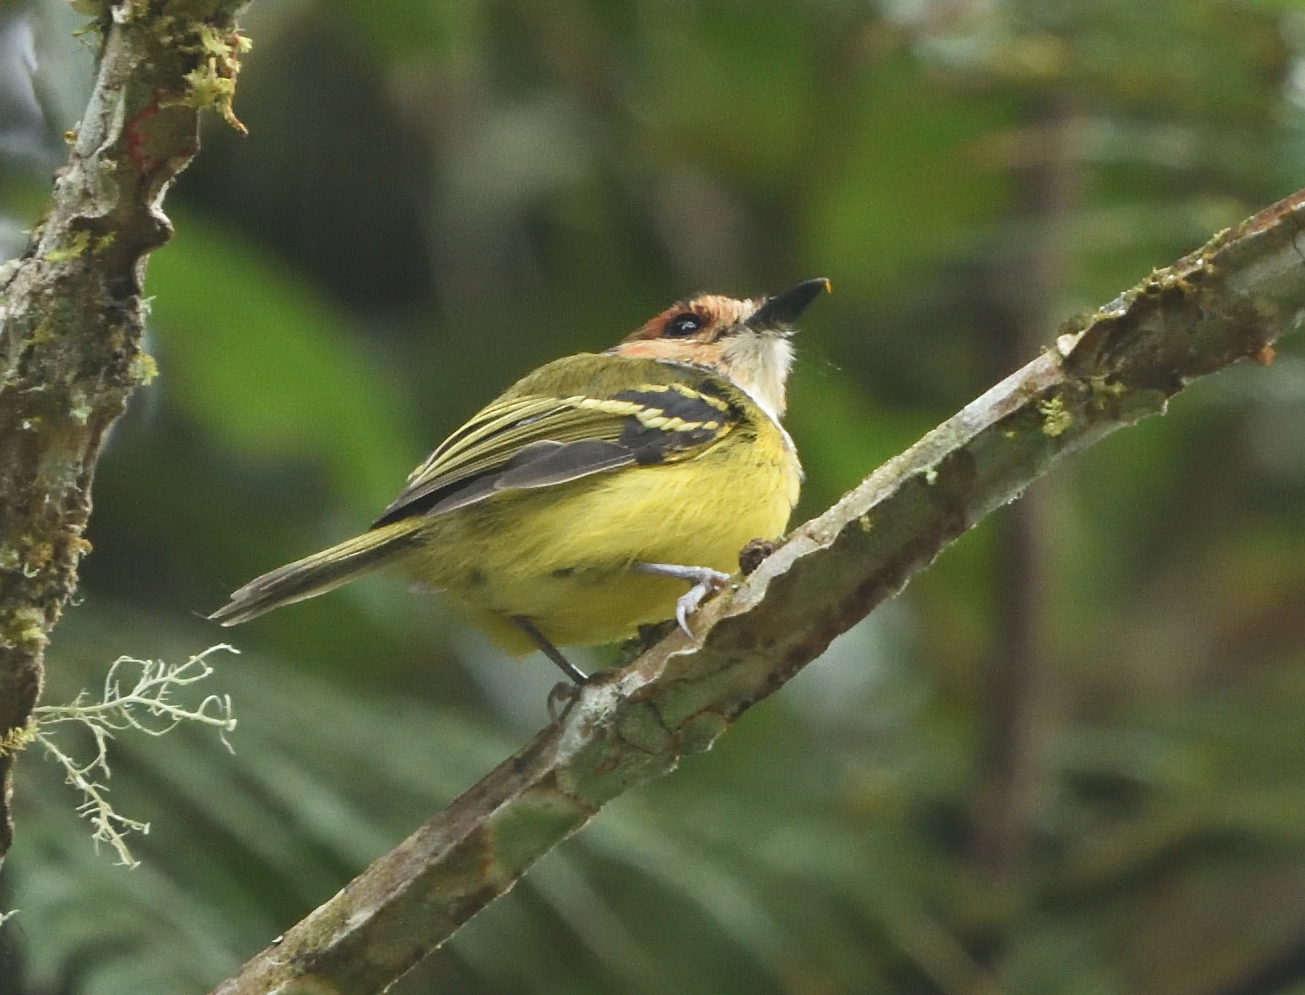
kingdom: Animalia
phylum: Chordata
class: Aves
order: Passeriformes
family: Tyrannidae
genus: Poecilotriccus
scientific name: Poecilotriccus ruficeps
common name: Rufous-crowned tody-flycatcher
